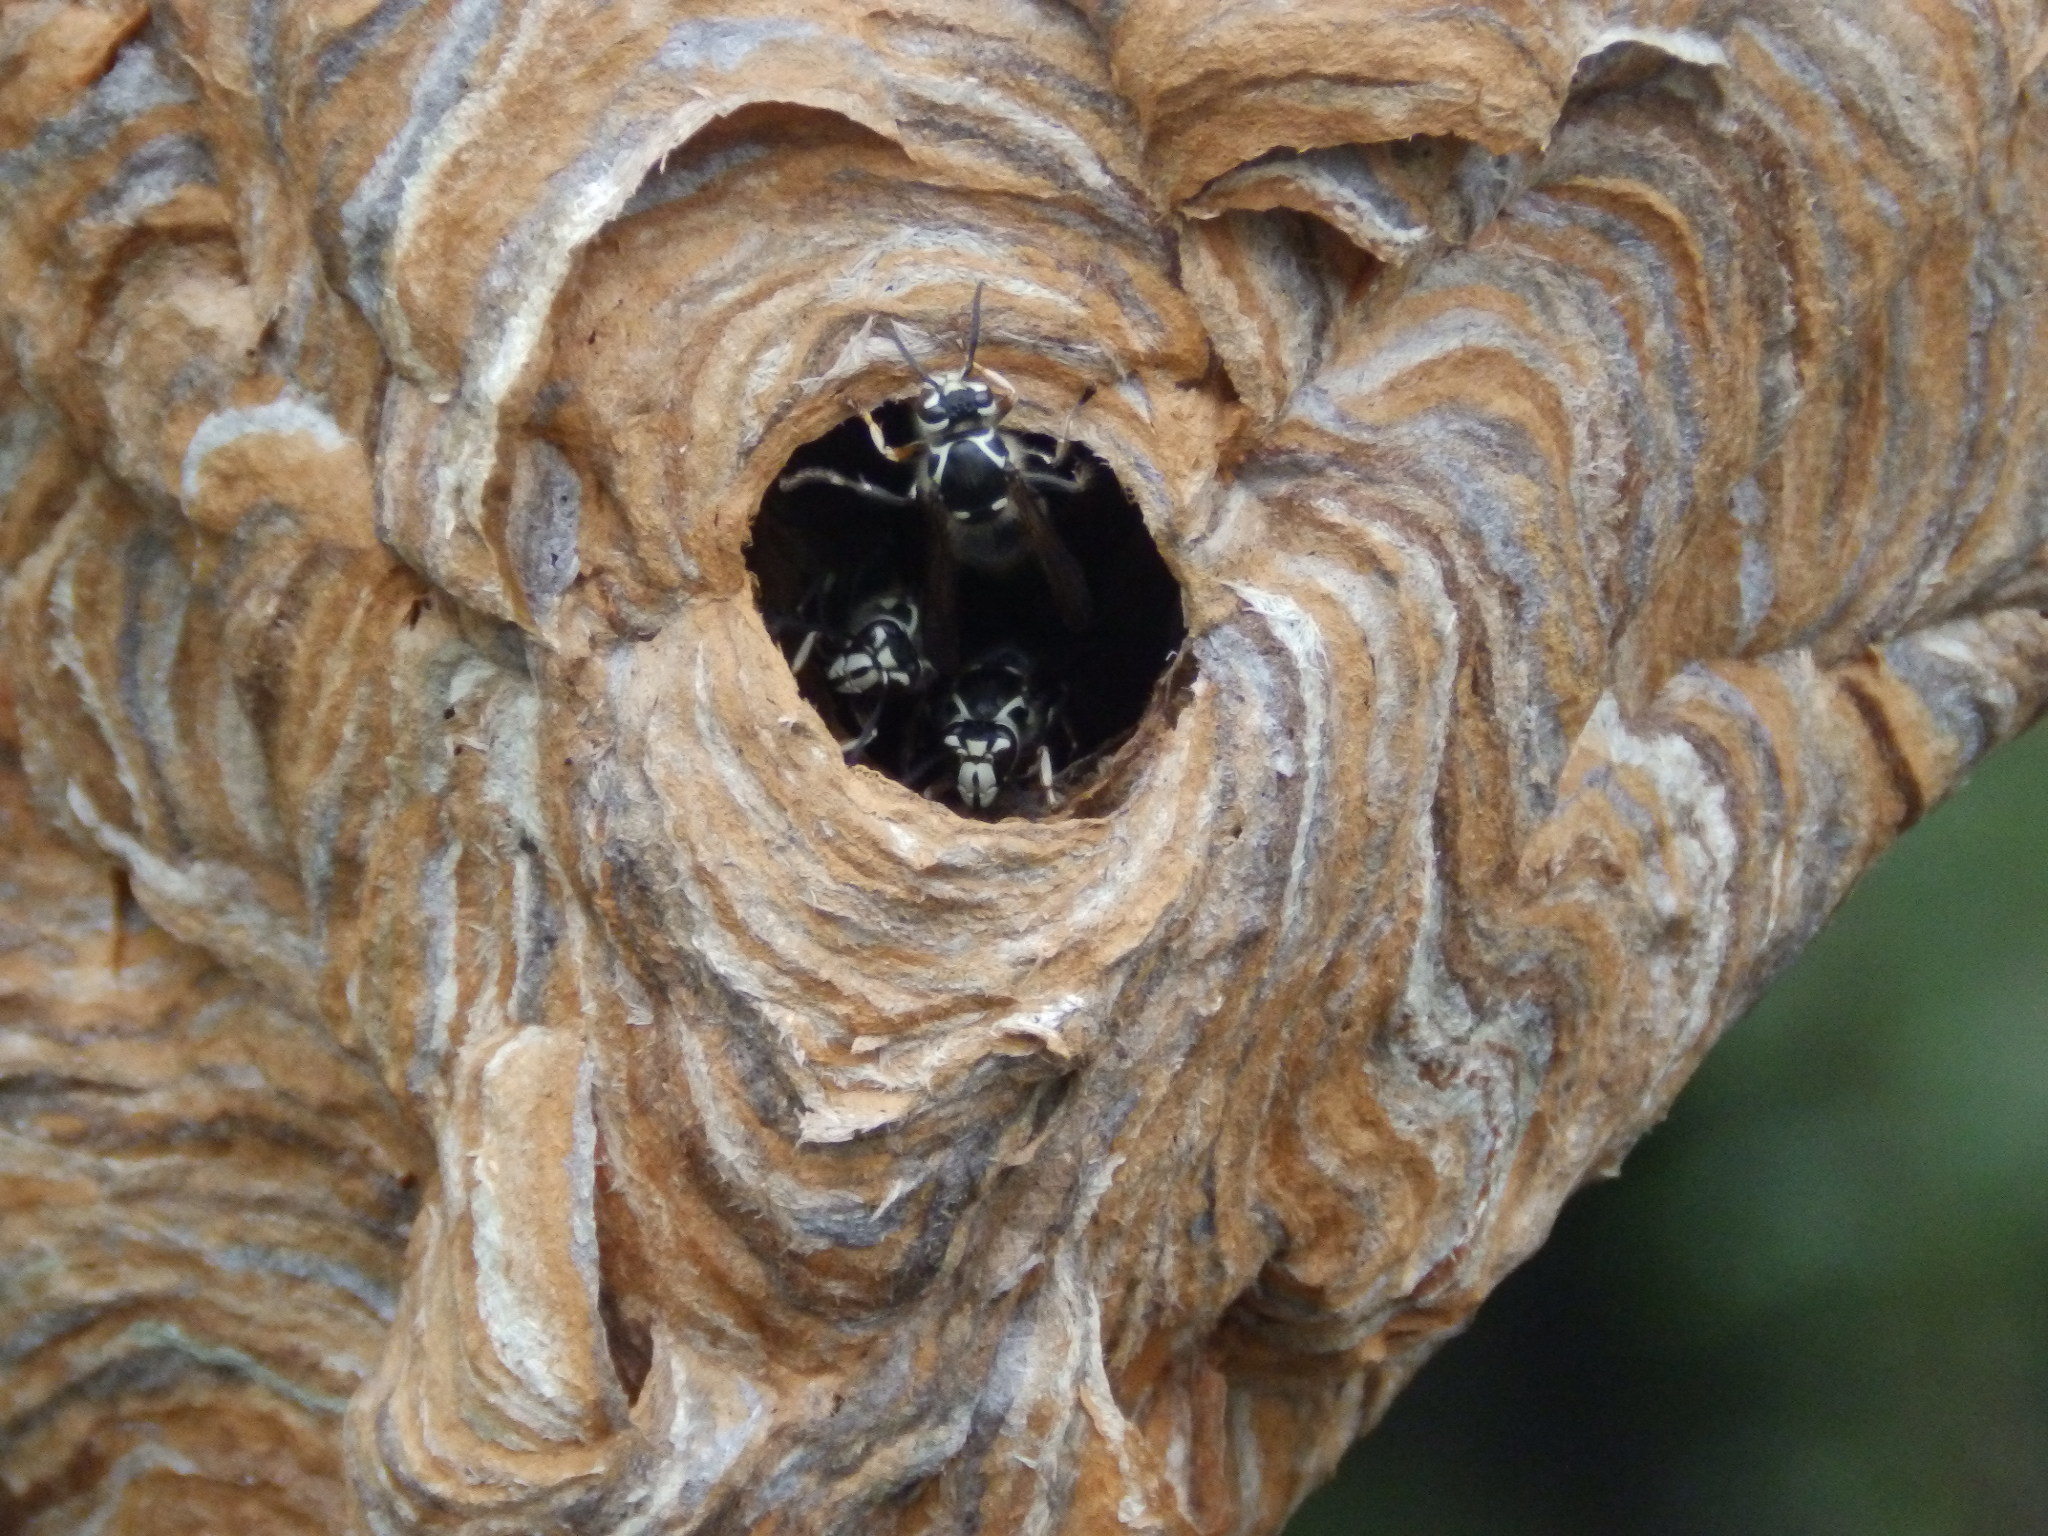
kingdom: Animalia
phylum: Arthropoda
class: Insecta
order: Hymenoptera
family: Vespidae
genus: Dolichovespula
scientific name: Dolichovespula maculata
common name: Bald-faced hornet
